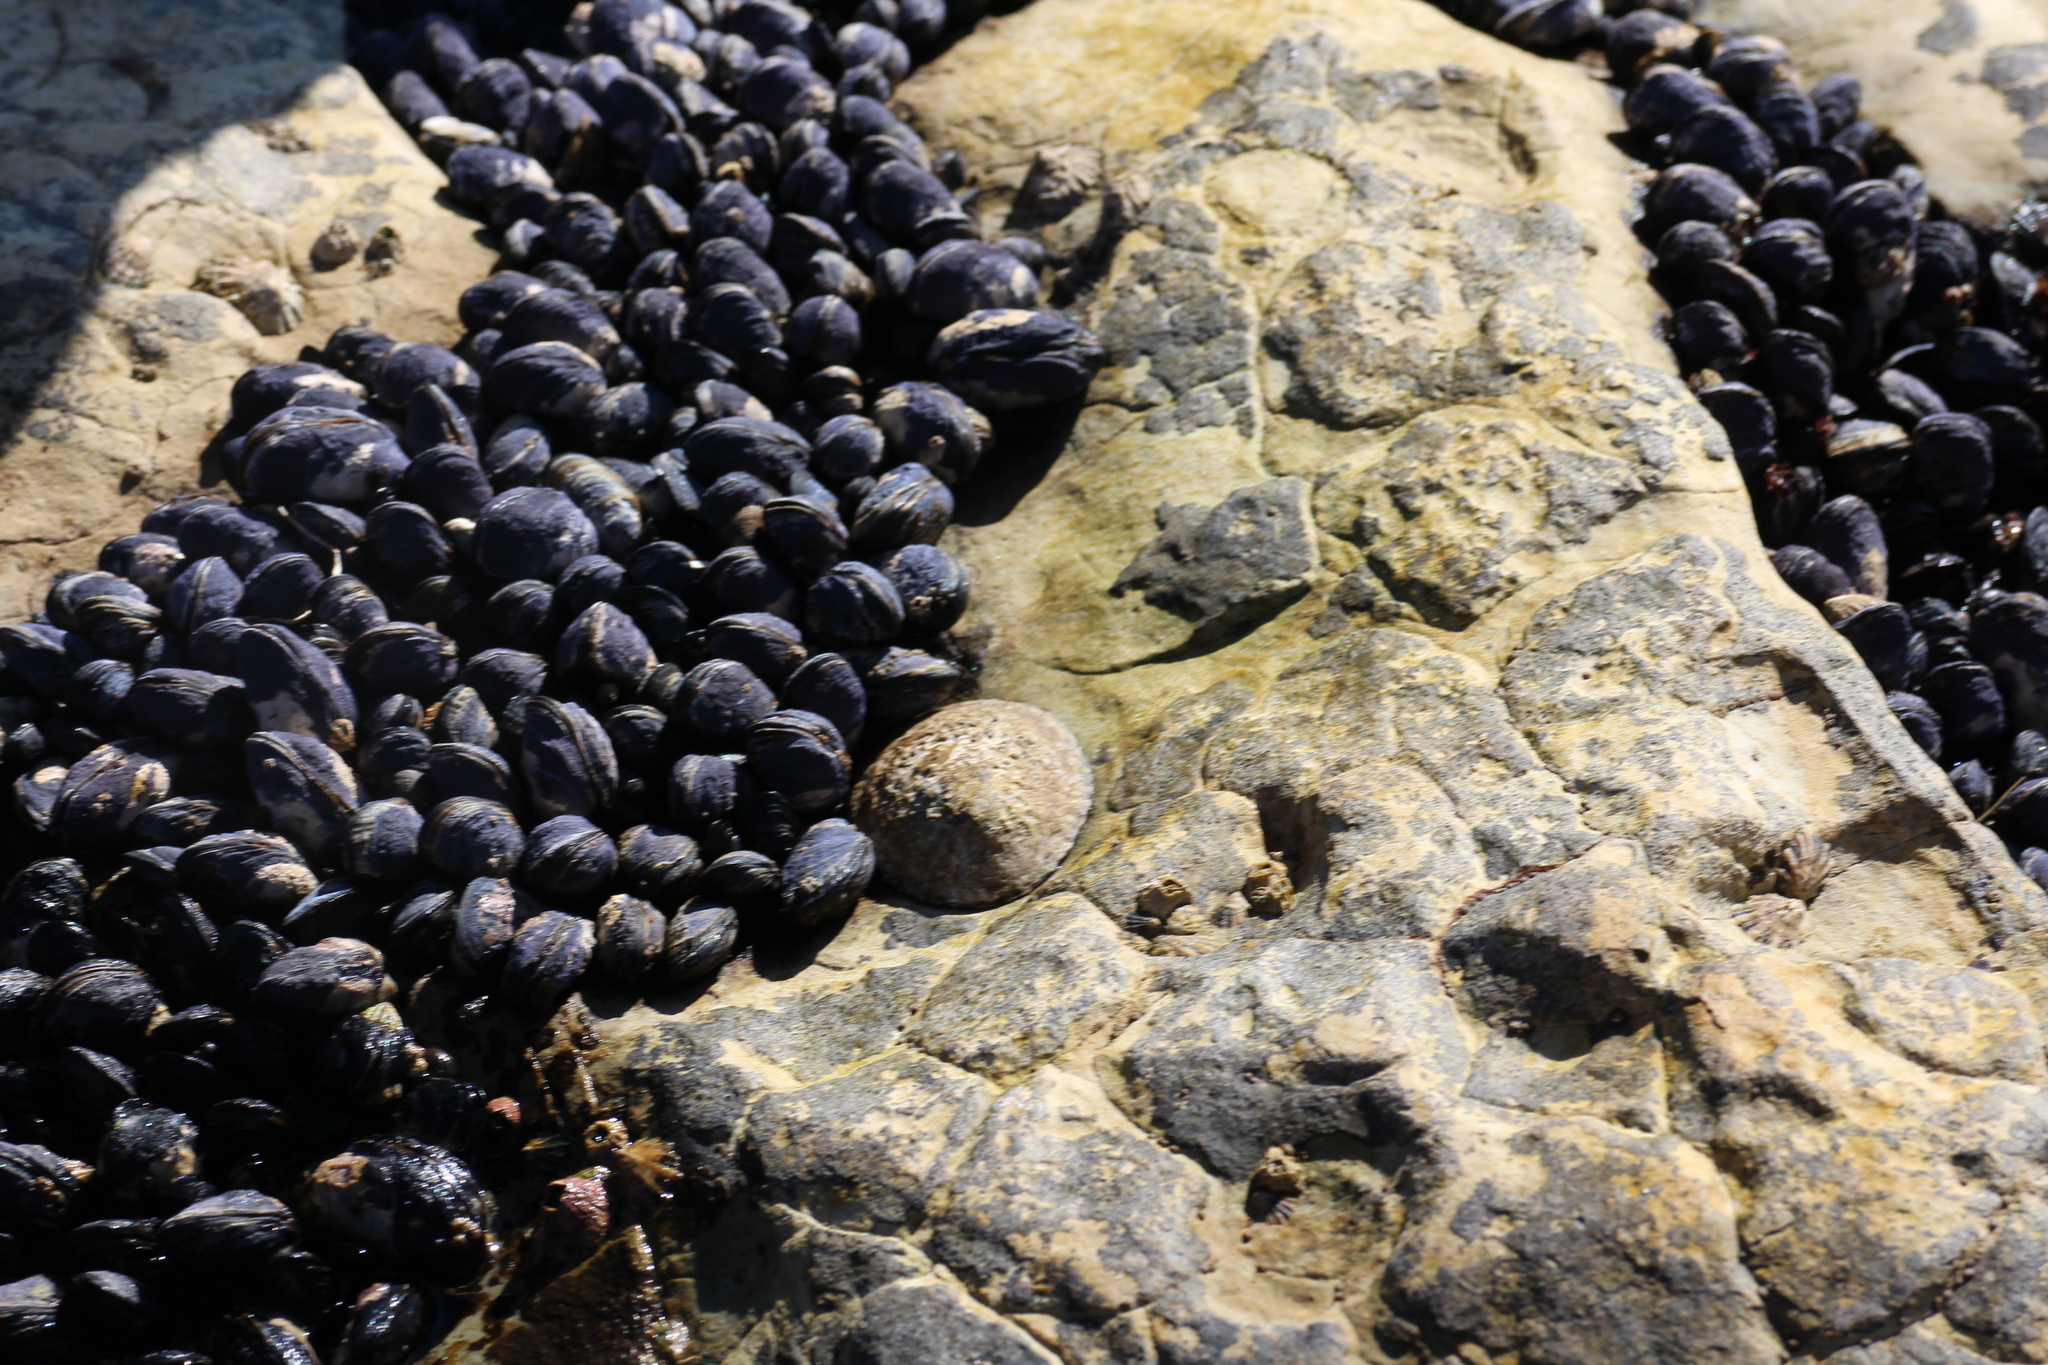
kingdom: Animalia
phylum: Mollusca
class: Gastropoda
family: Lottiidae
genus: Lottia
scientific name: Lottia gigantea
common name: Owl limpet
